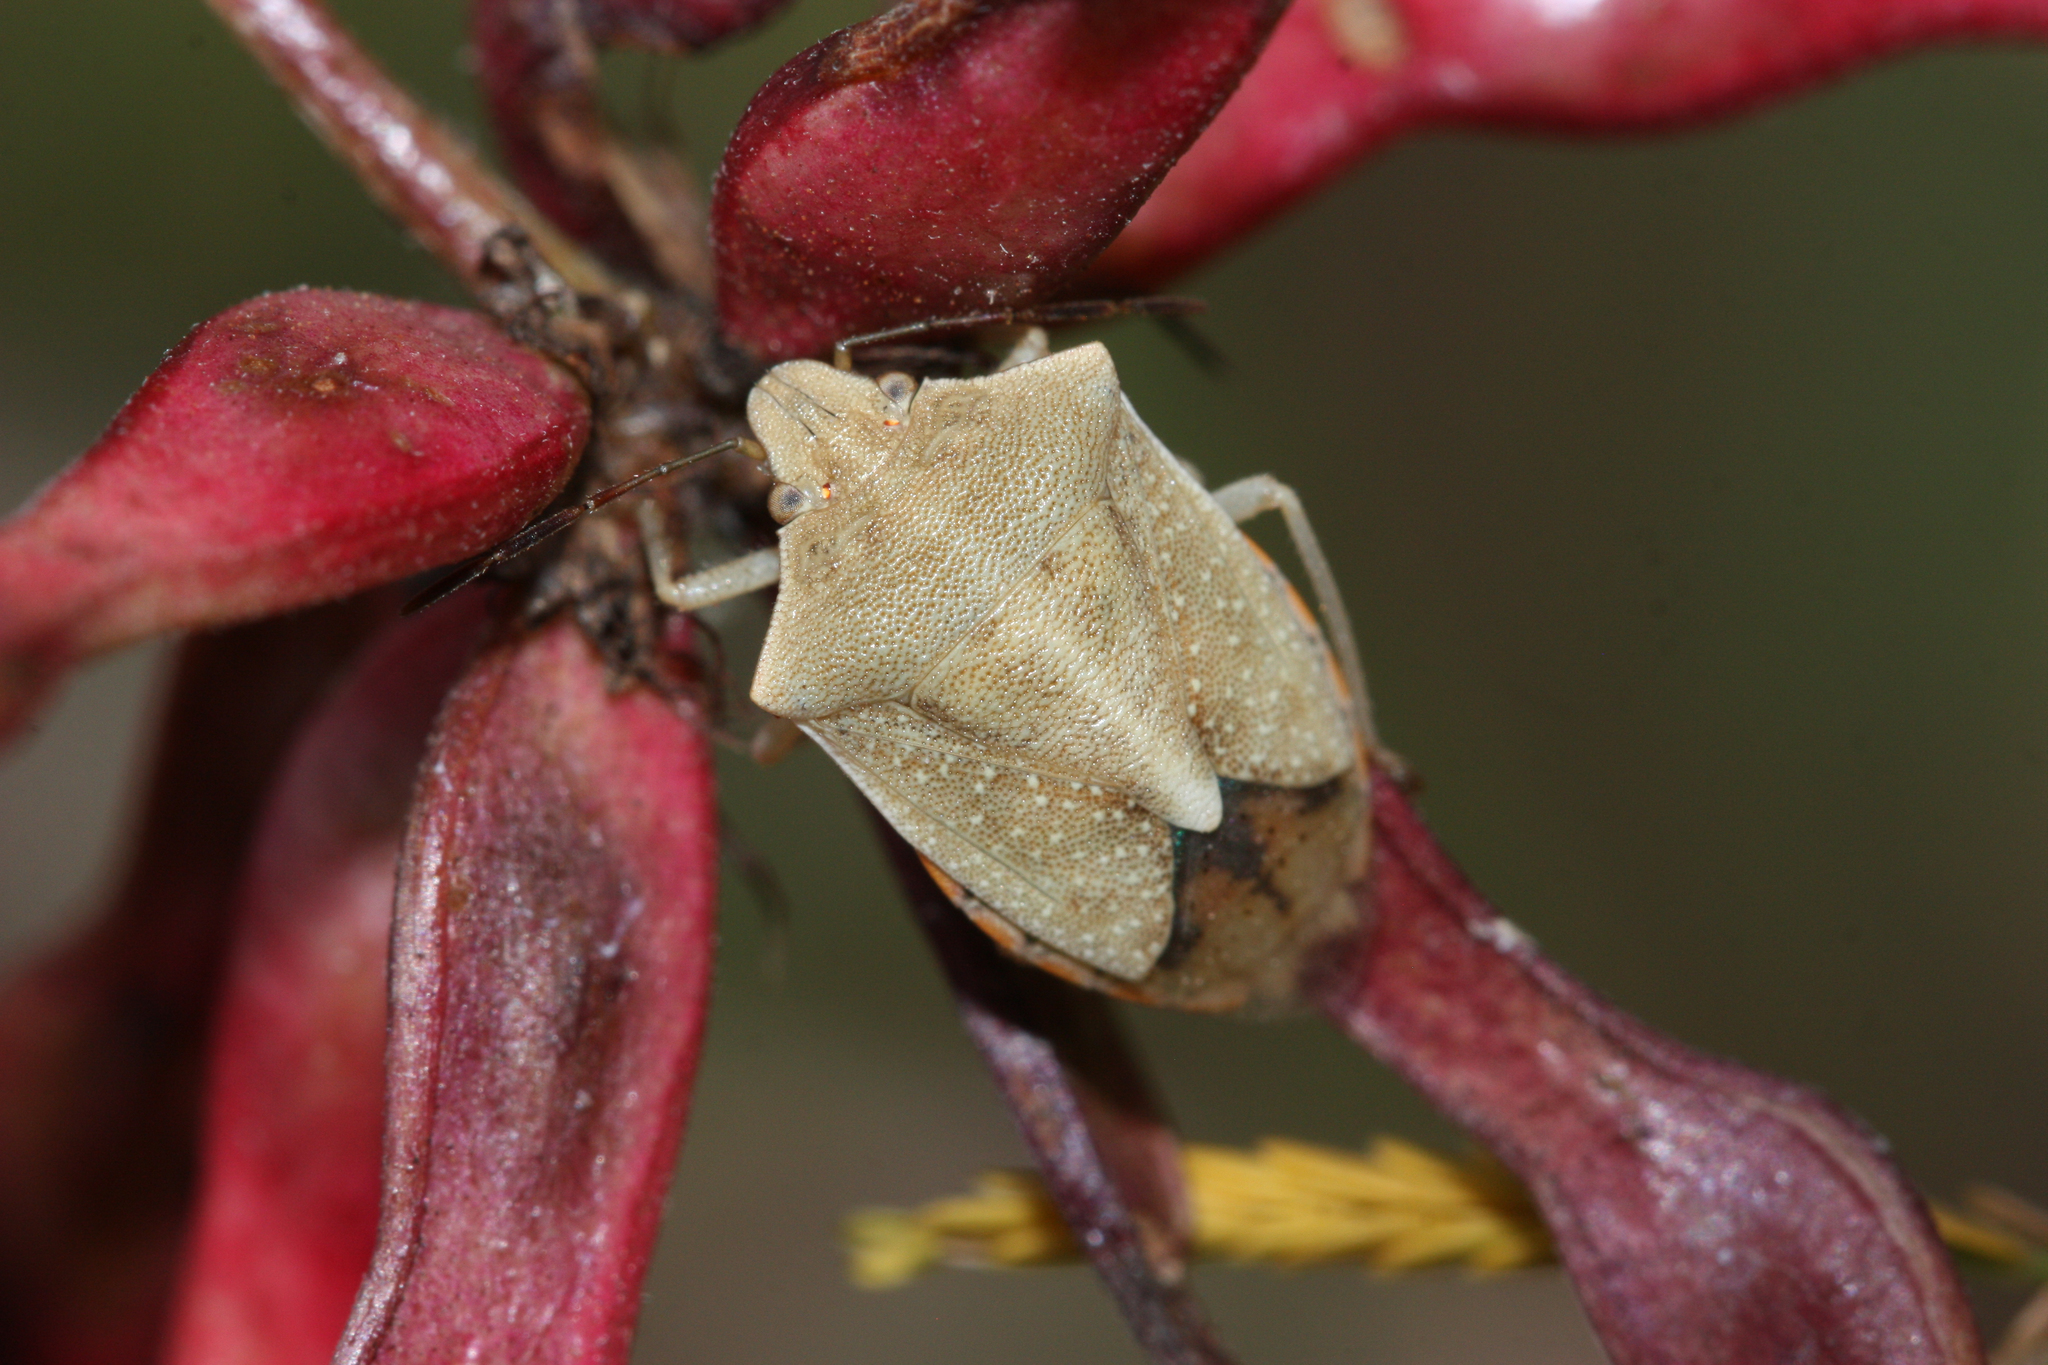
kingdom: Animalia
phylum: Arthropoda
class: Insecta
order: Hemiptera
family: Pentatomidae
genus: Thyanta
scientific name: Thyanta accerra
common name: Stink bug
